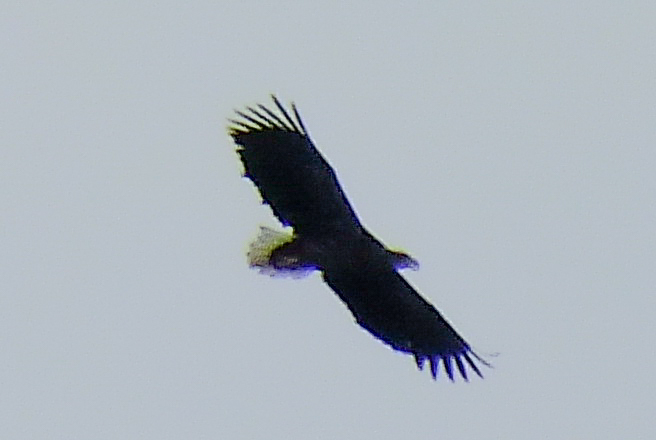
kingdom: Animalia
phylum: Chordata
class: Aves
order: Accipitriformes
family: Accipitridae
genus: Haliaeetus
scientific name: Haliaeetus albicilla
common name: White-tailed eagle
